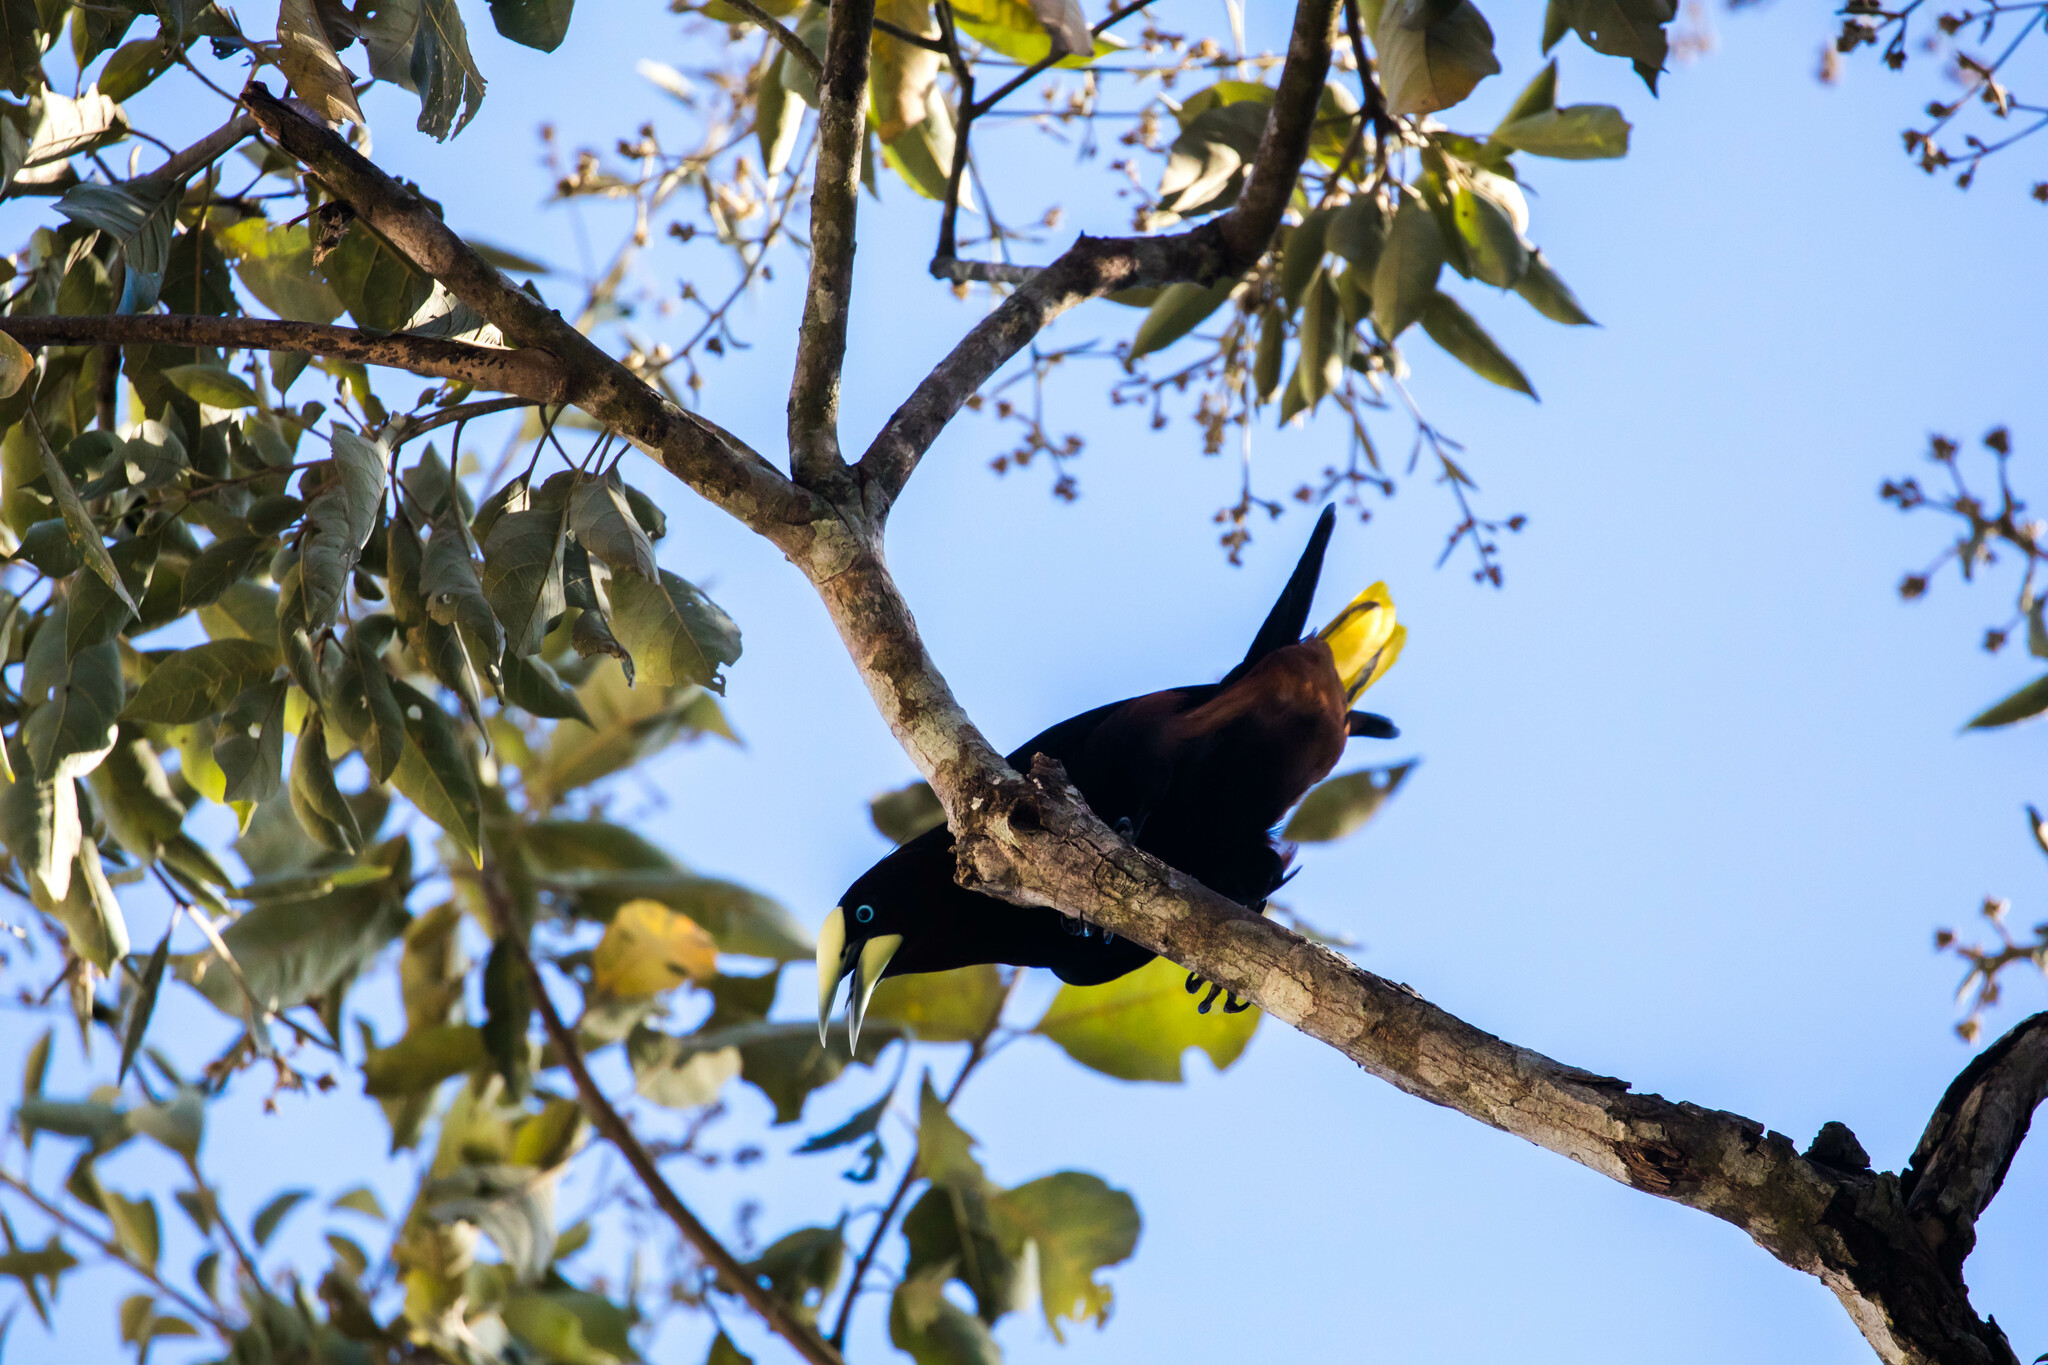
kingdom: Animalia
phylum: Chordata
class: Aves
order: Passeriformes
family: Icteridae
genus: Psarocolius
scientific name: Psarocolius wagleri
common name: Chestnut-headed oropendola
